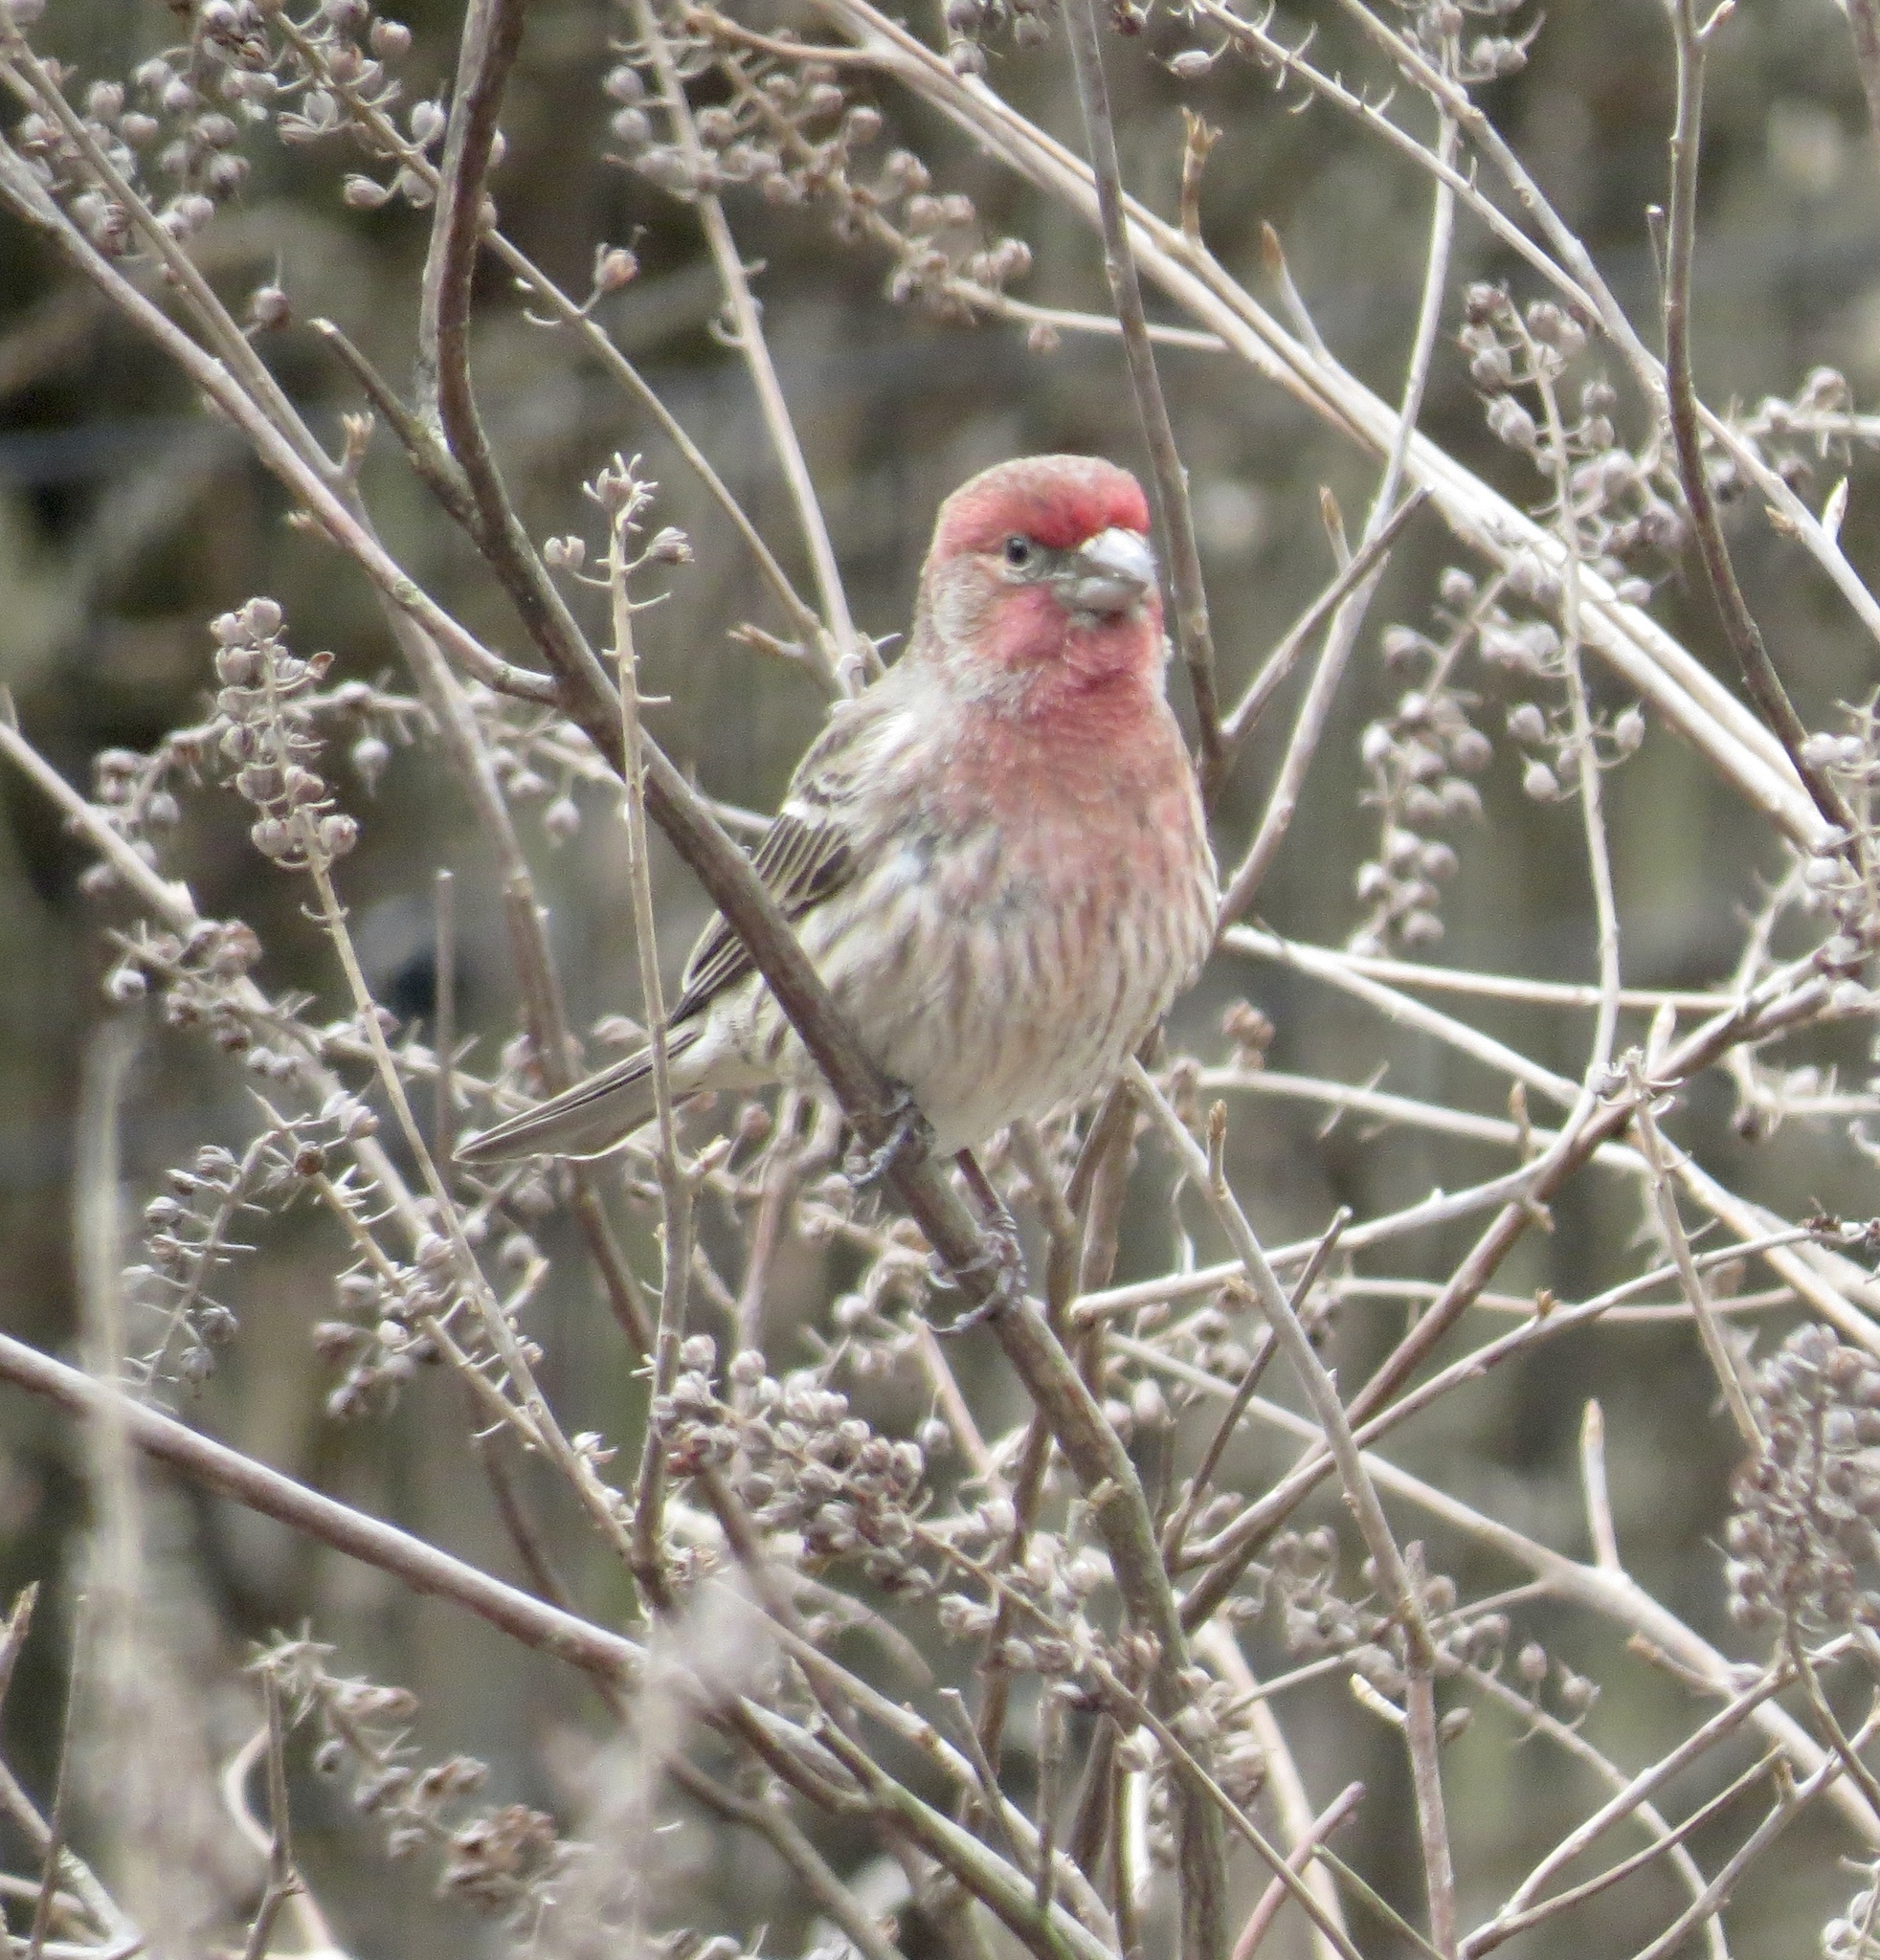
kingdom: Animalia
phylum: Chordata
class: Aves
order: Passeriformes
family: Fringillidae
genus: Haemorhous
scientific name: Haemorhous mexicanus
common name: House finch
